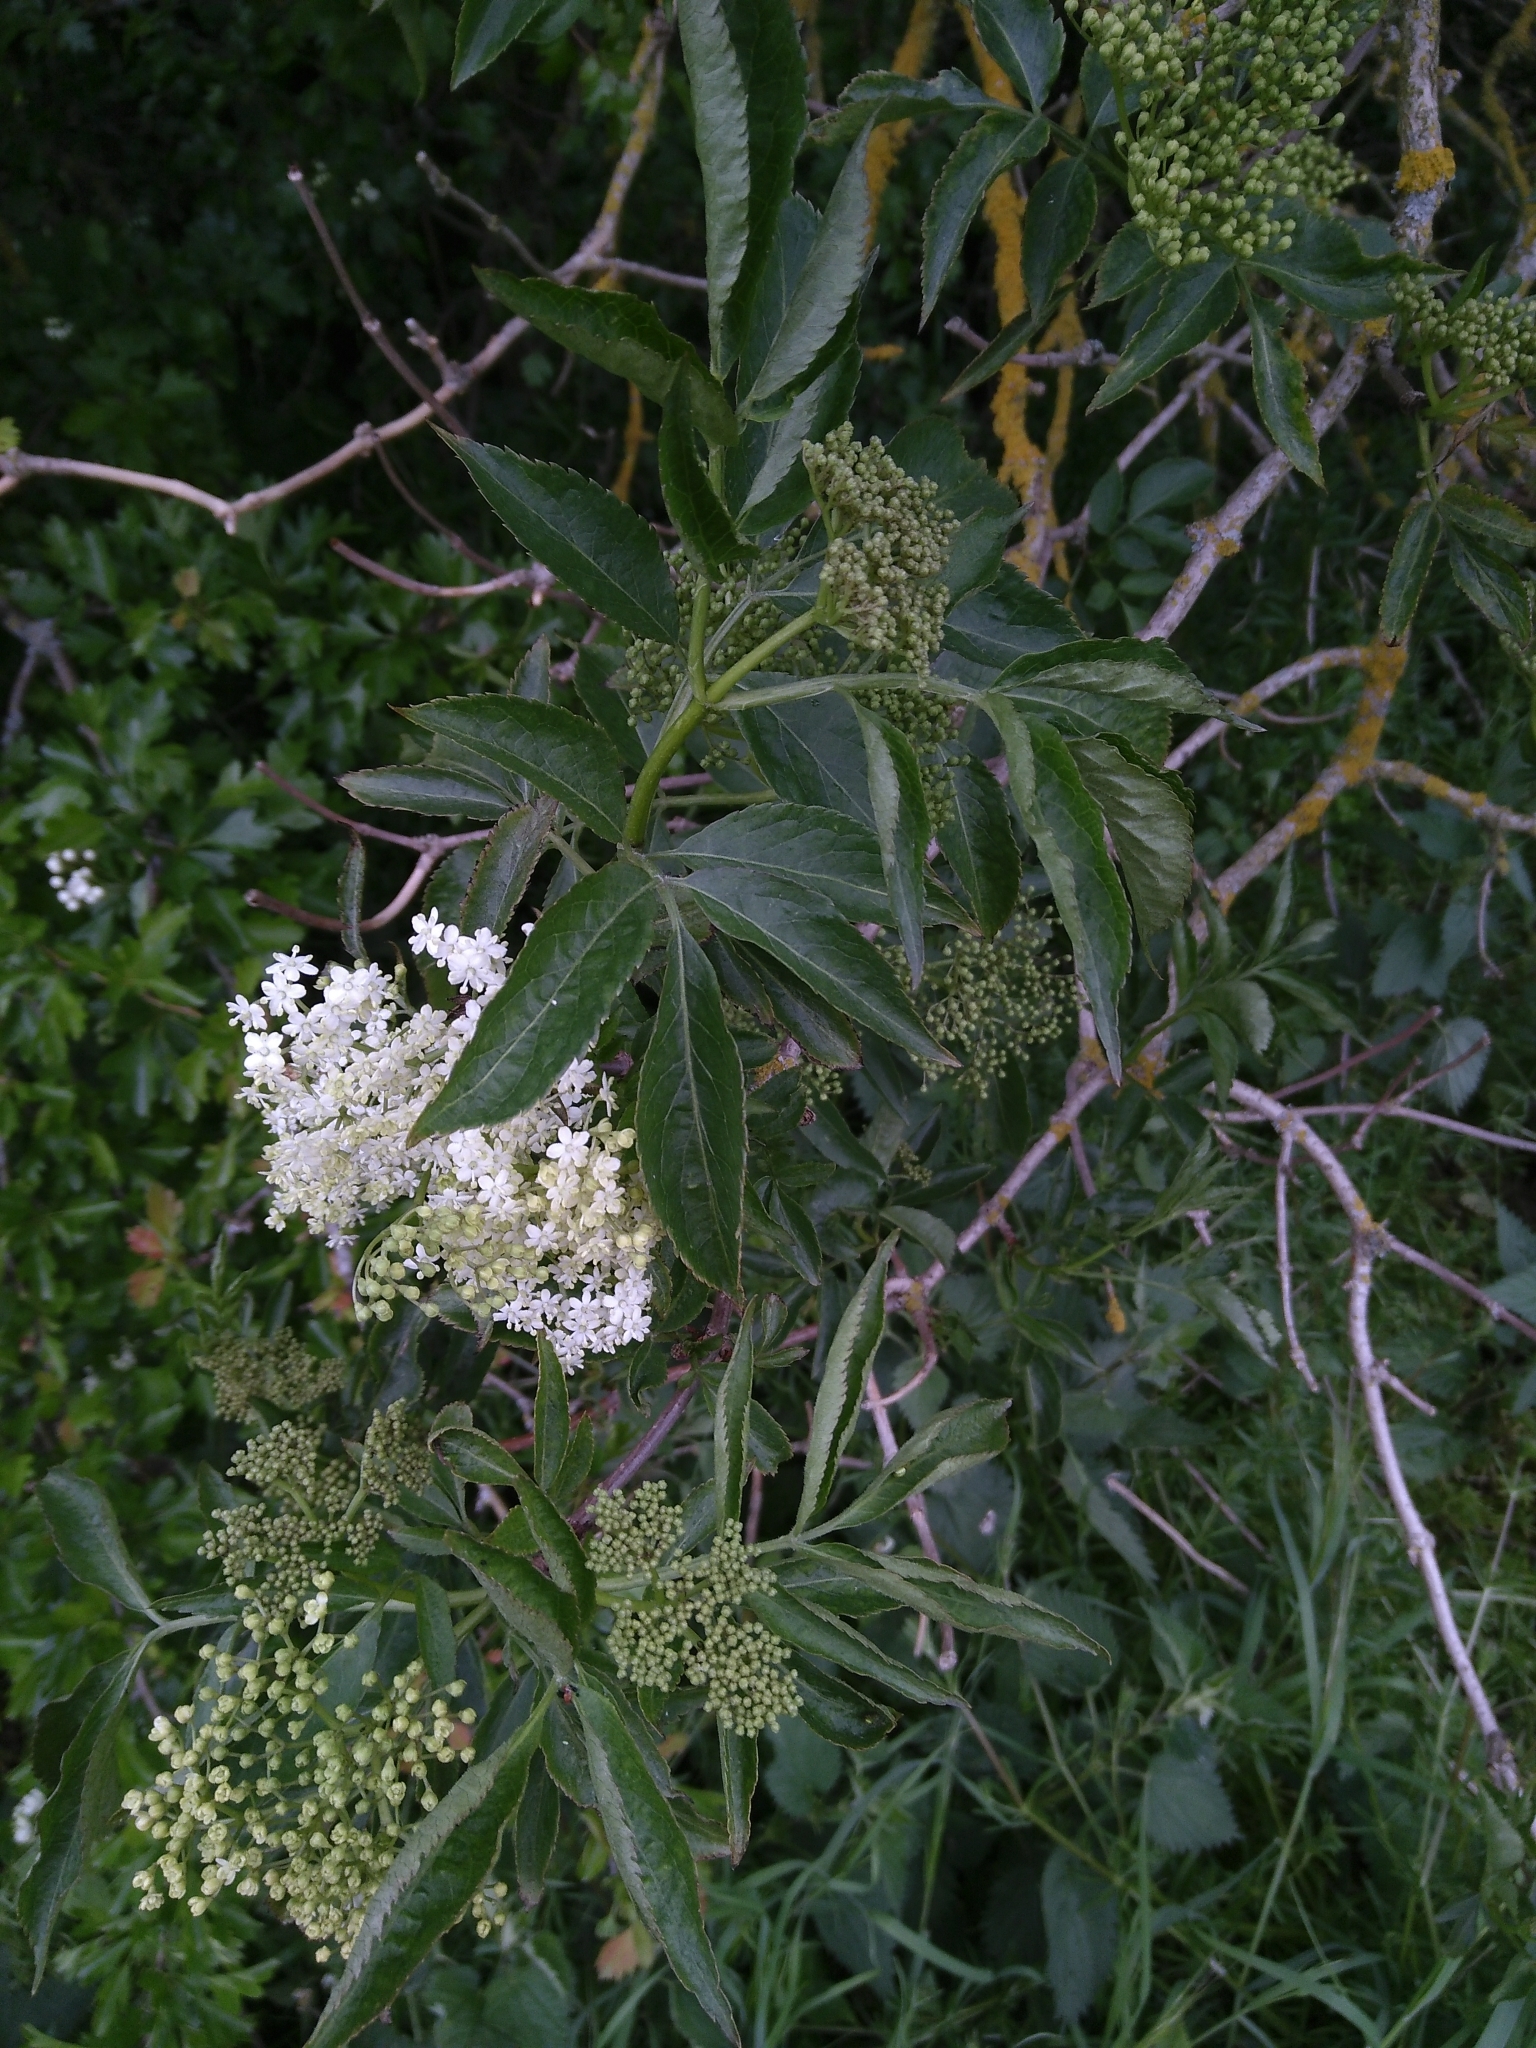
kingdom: Plantae
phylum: Tracheophyta
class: Magnoliopsida
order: Dipsacales
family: Viburnaceae
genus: Sambucus
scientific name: Sambucus nigra
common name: Elder
